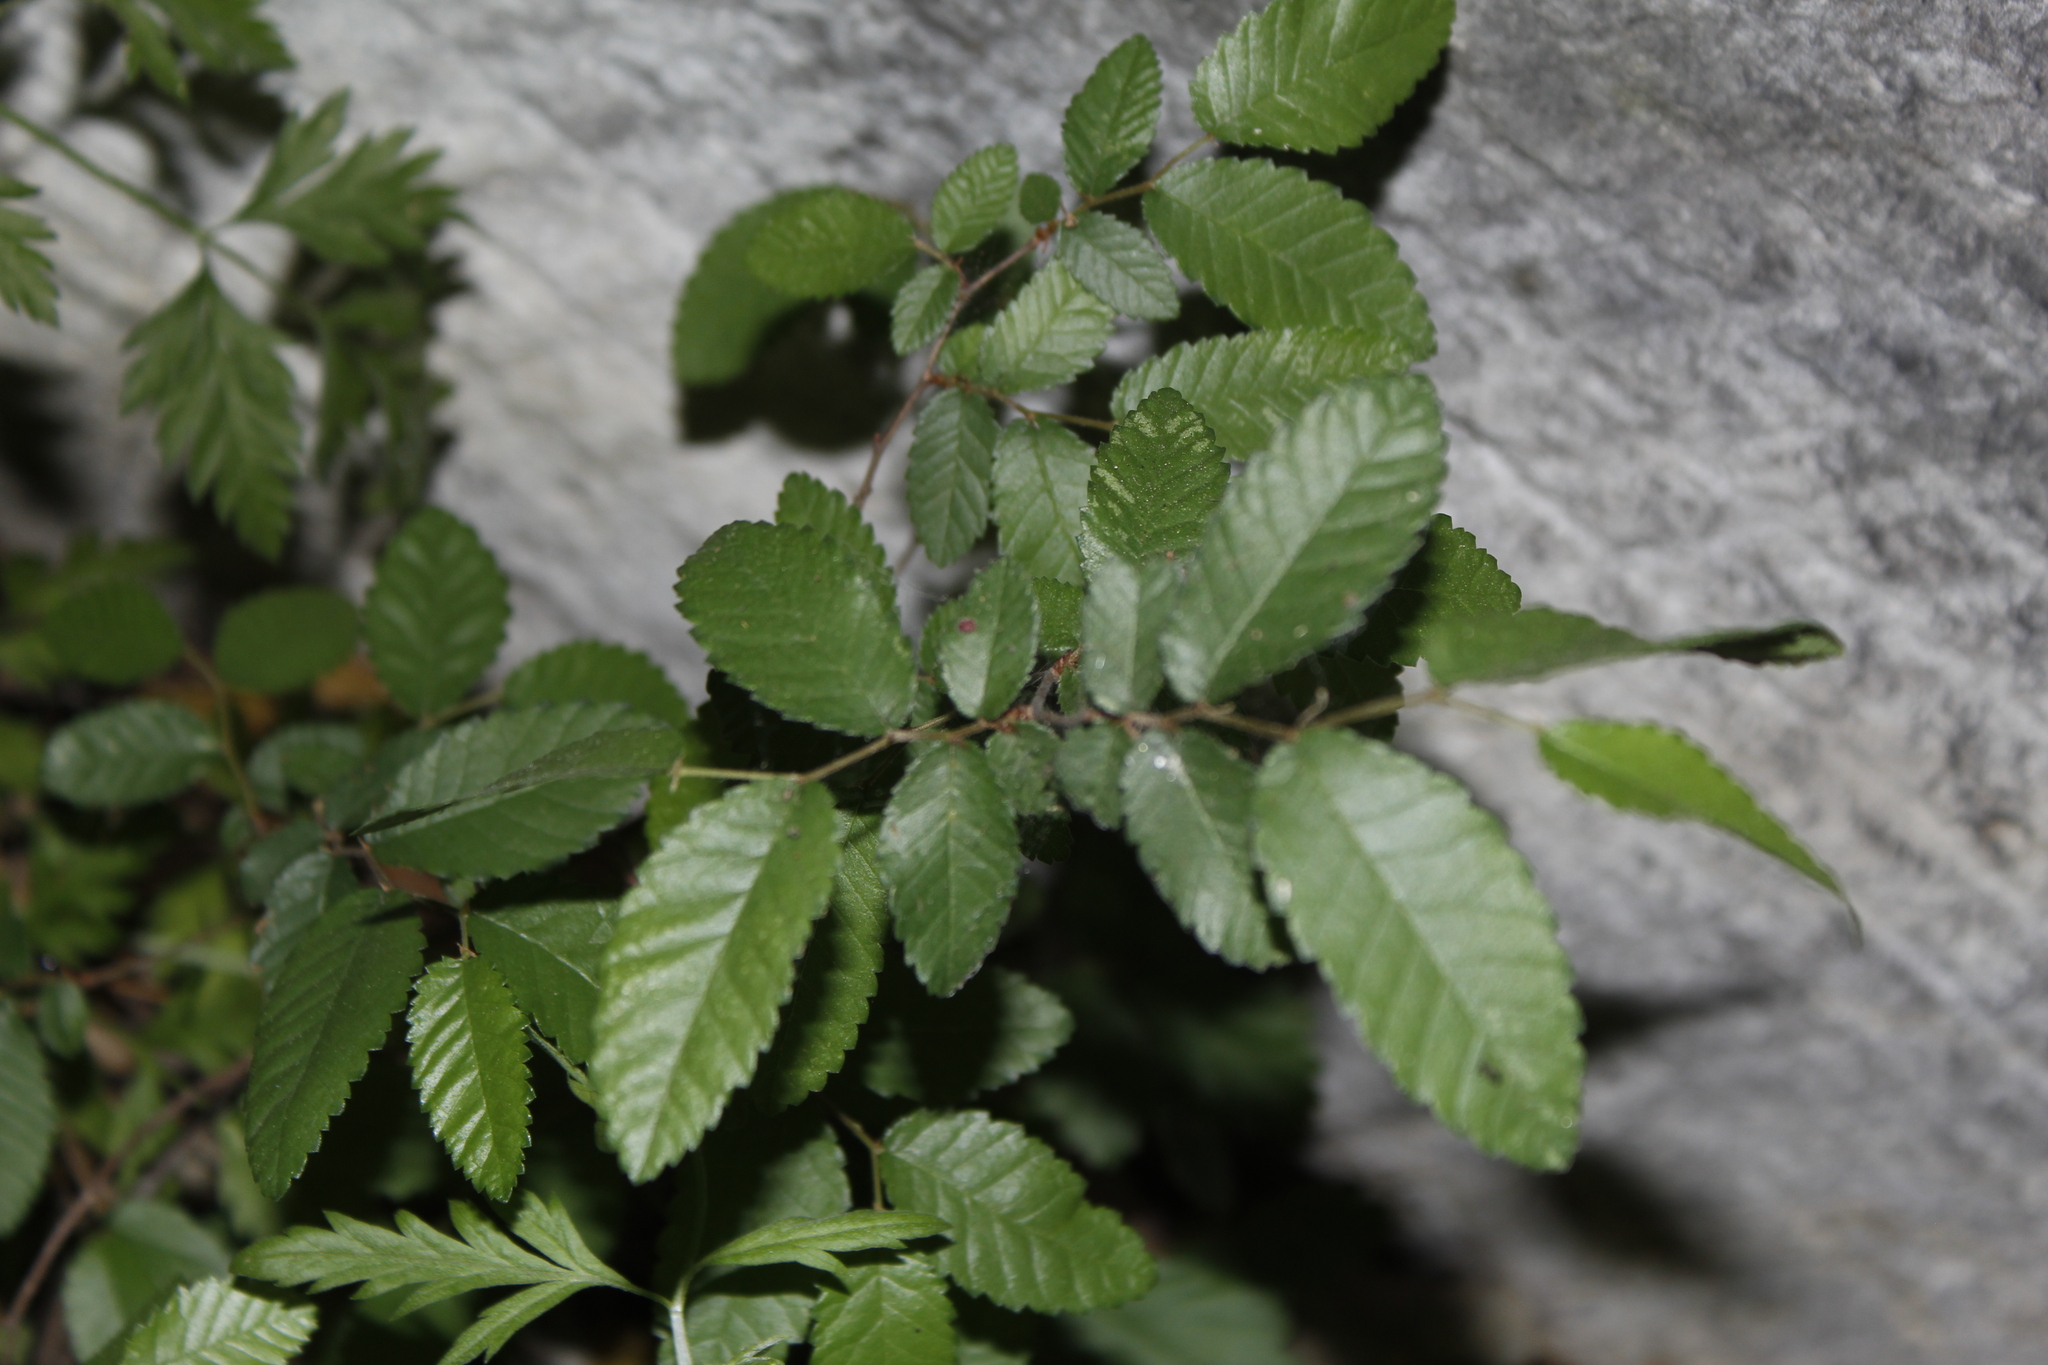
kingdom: Plantae
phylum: Tracheophyta
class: Magnoliopsida
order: Rosales
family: Ulmaceae
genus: Ulmus
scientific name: Ulmus crassifolia
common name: Basket elm
